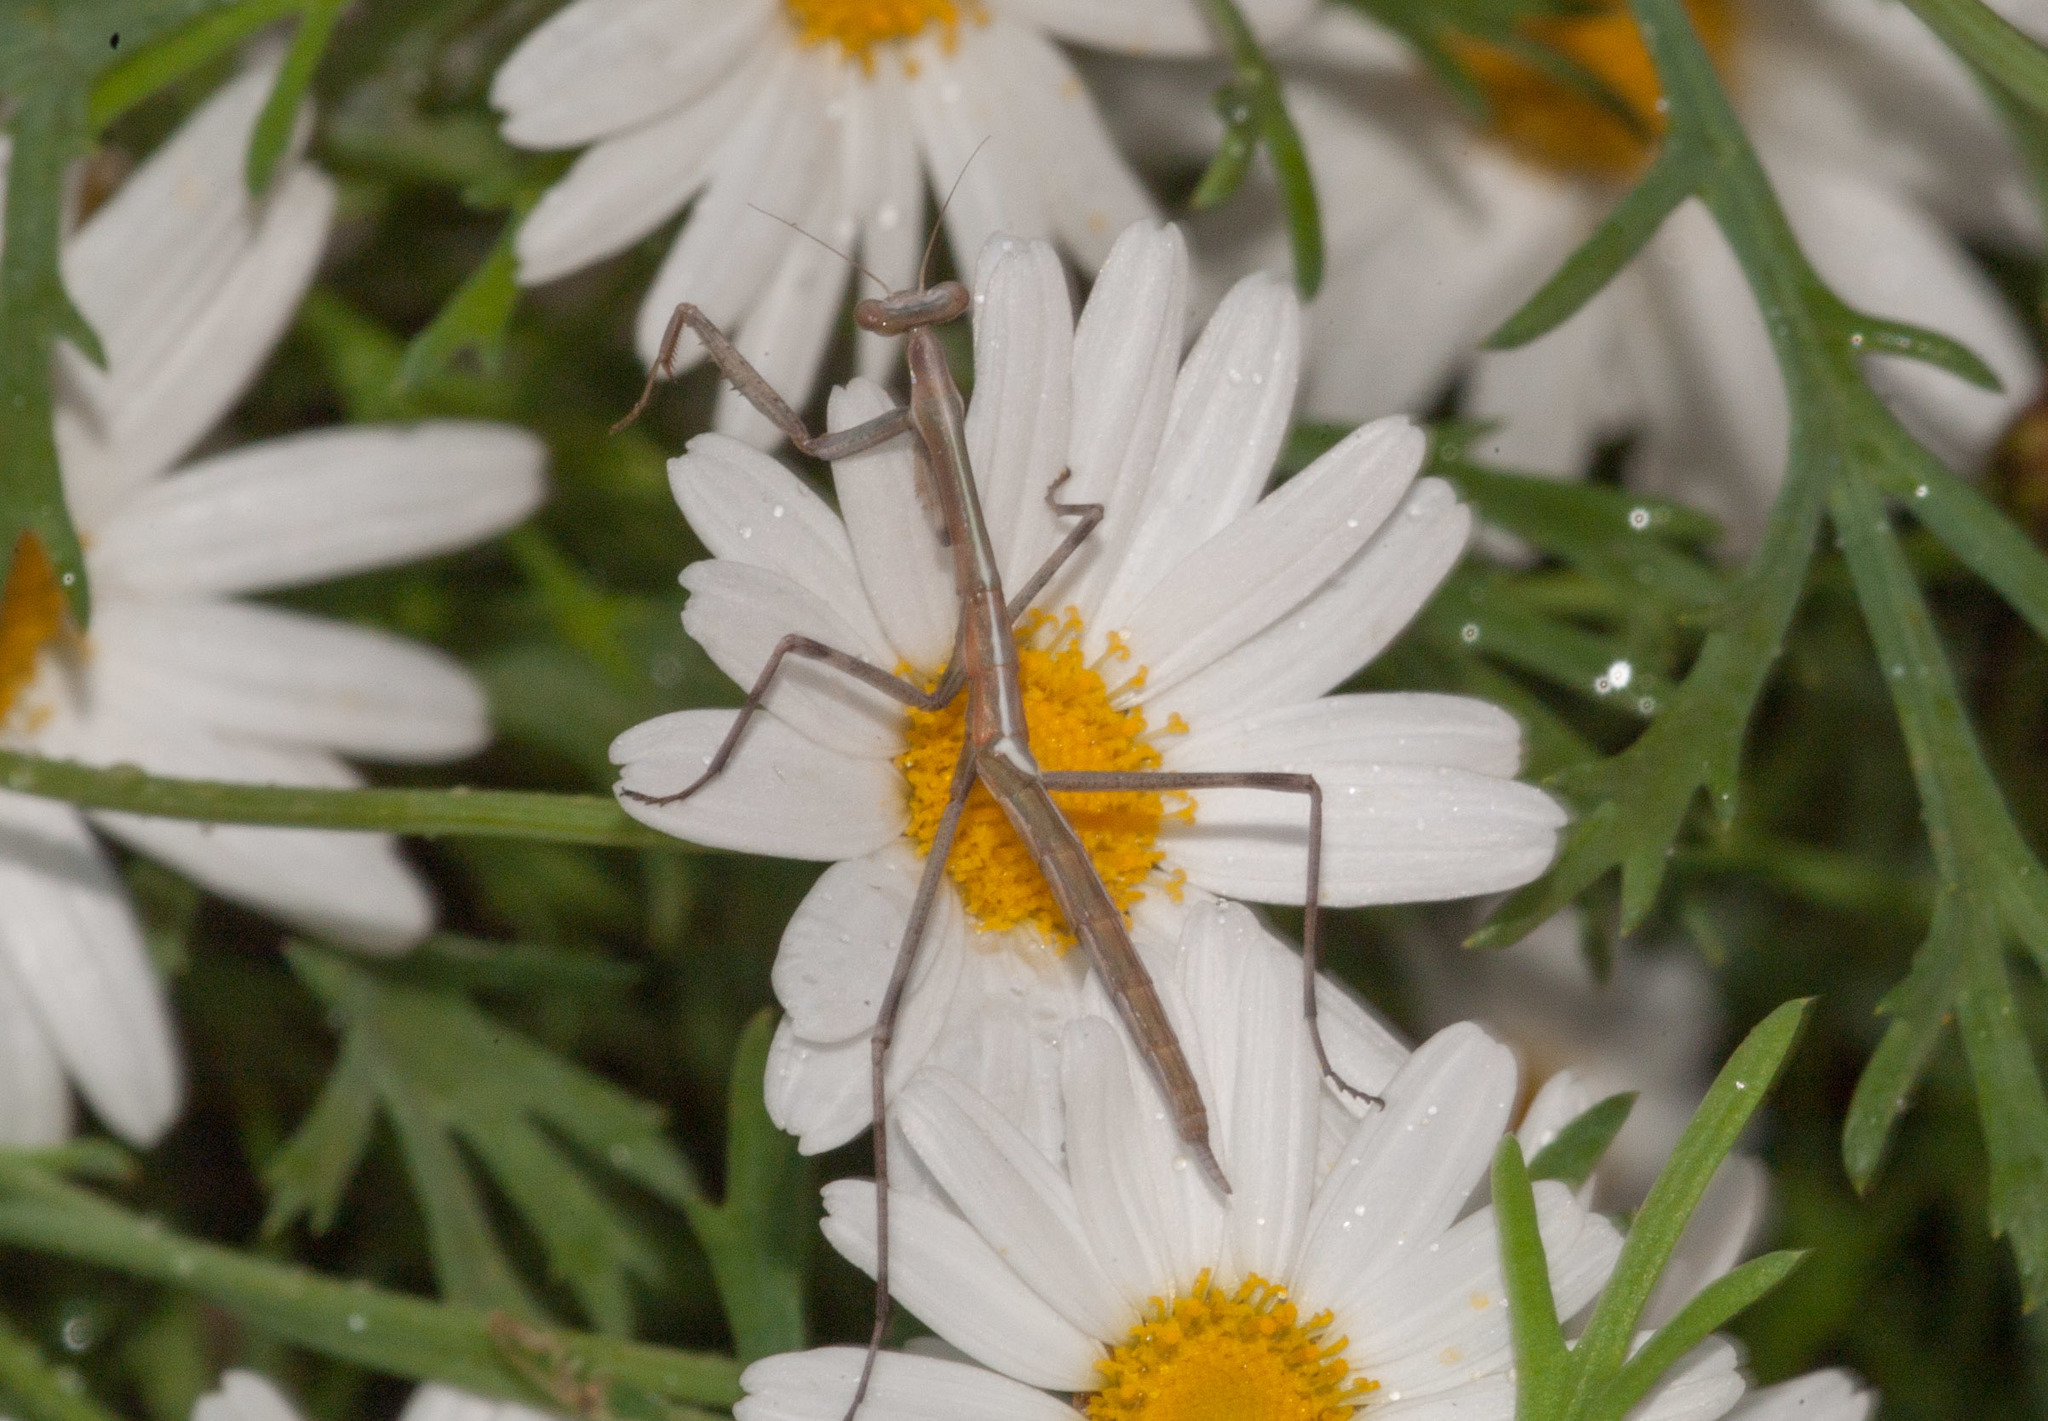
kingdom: Animalia
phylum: Arthropoda
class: Insecta
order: Mantodea
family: Mantidae
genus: Archimantis
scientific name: Archimantis sobrina
